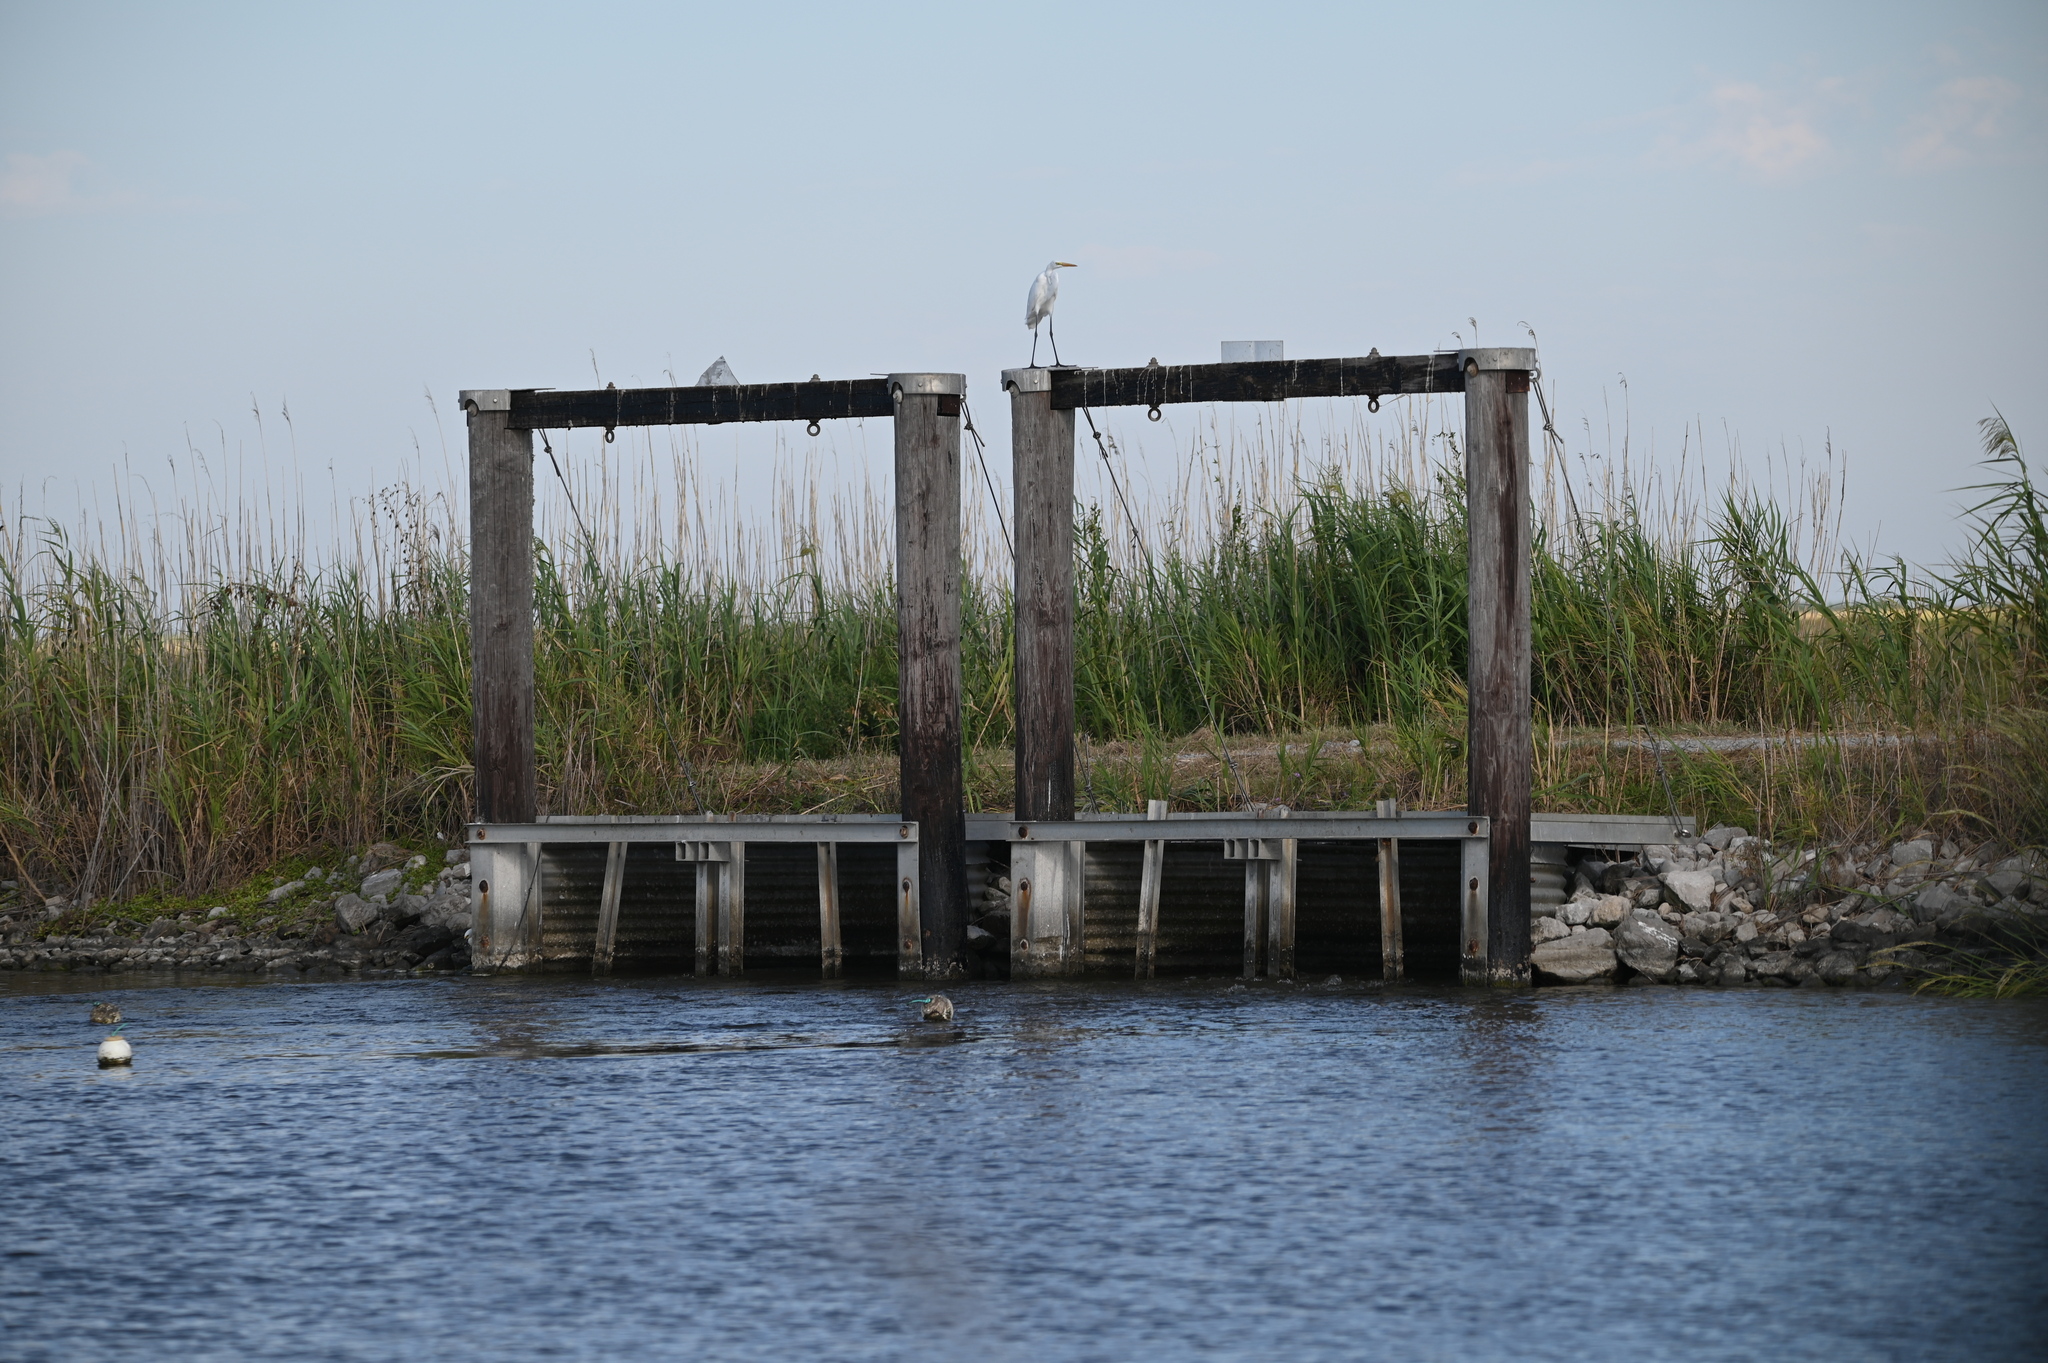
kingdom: Animalia
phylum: Chordata
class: Aves
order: Pelecaniformes
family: Ardeidae
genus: Ardea
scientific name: Ardea alba
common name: Great egret
